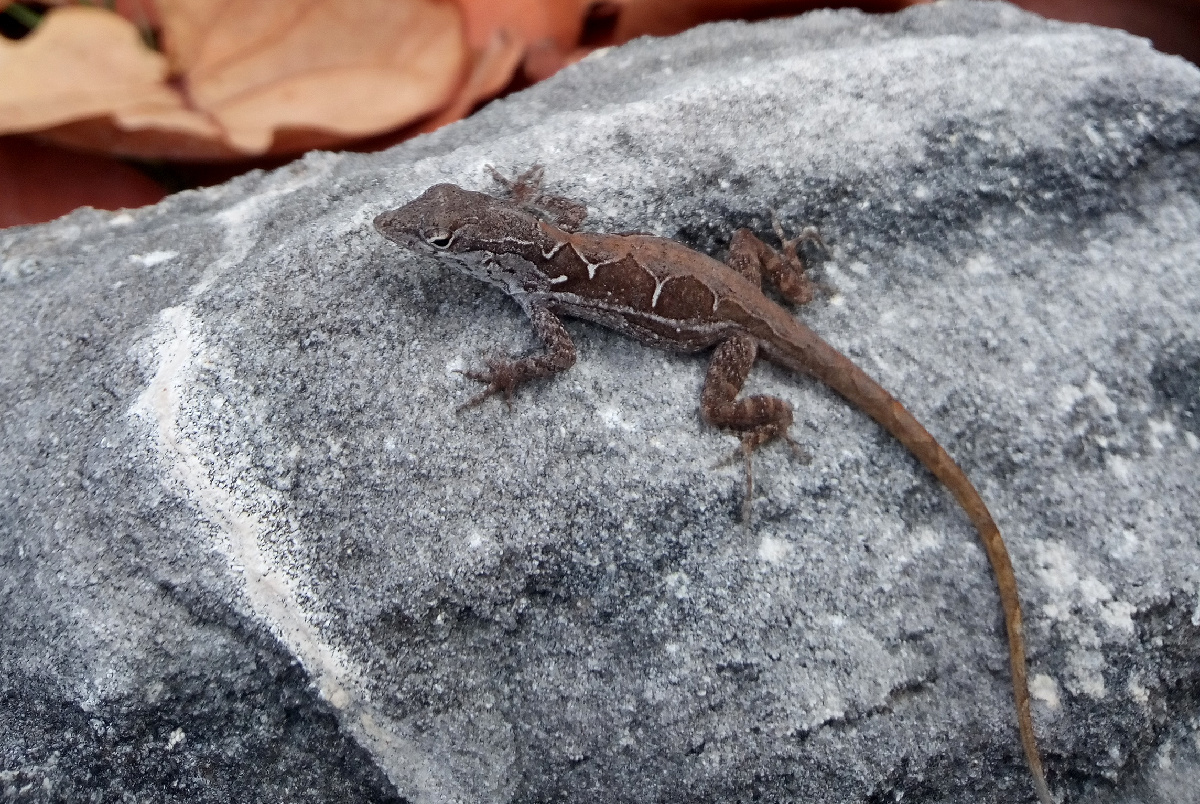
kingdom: Animalia
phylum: Chordata
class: Squamata
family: Dactyloidae
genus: Anolis
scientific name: Anolis sagrei
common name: Brown anole
